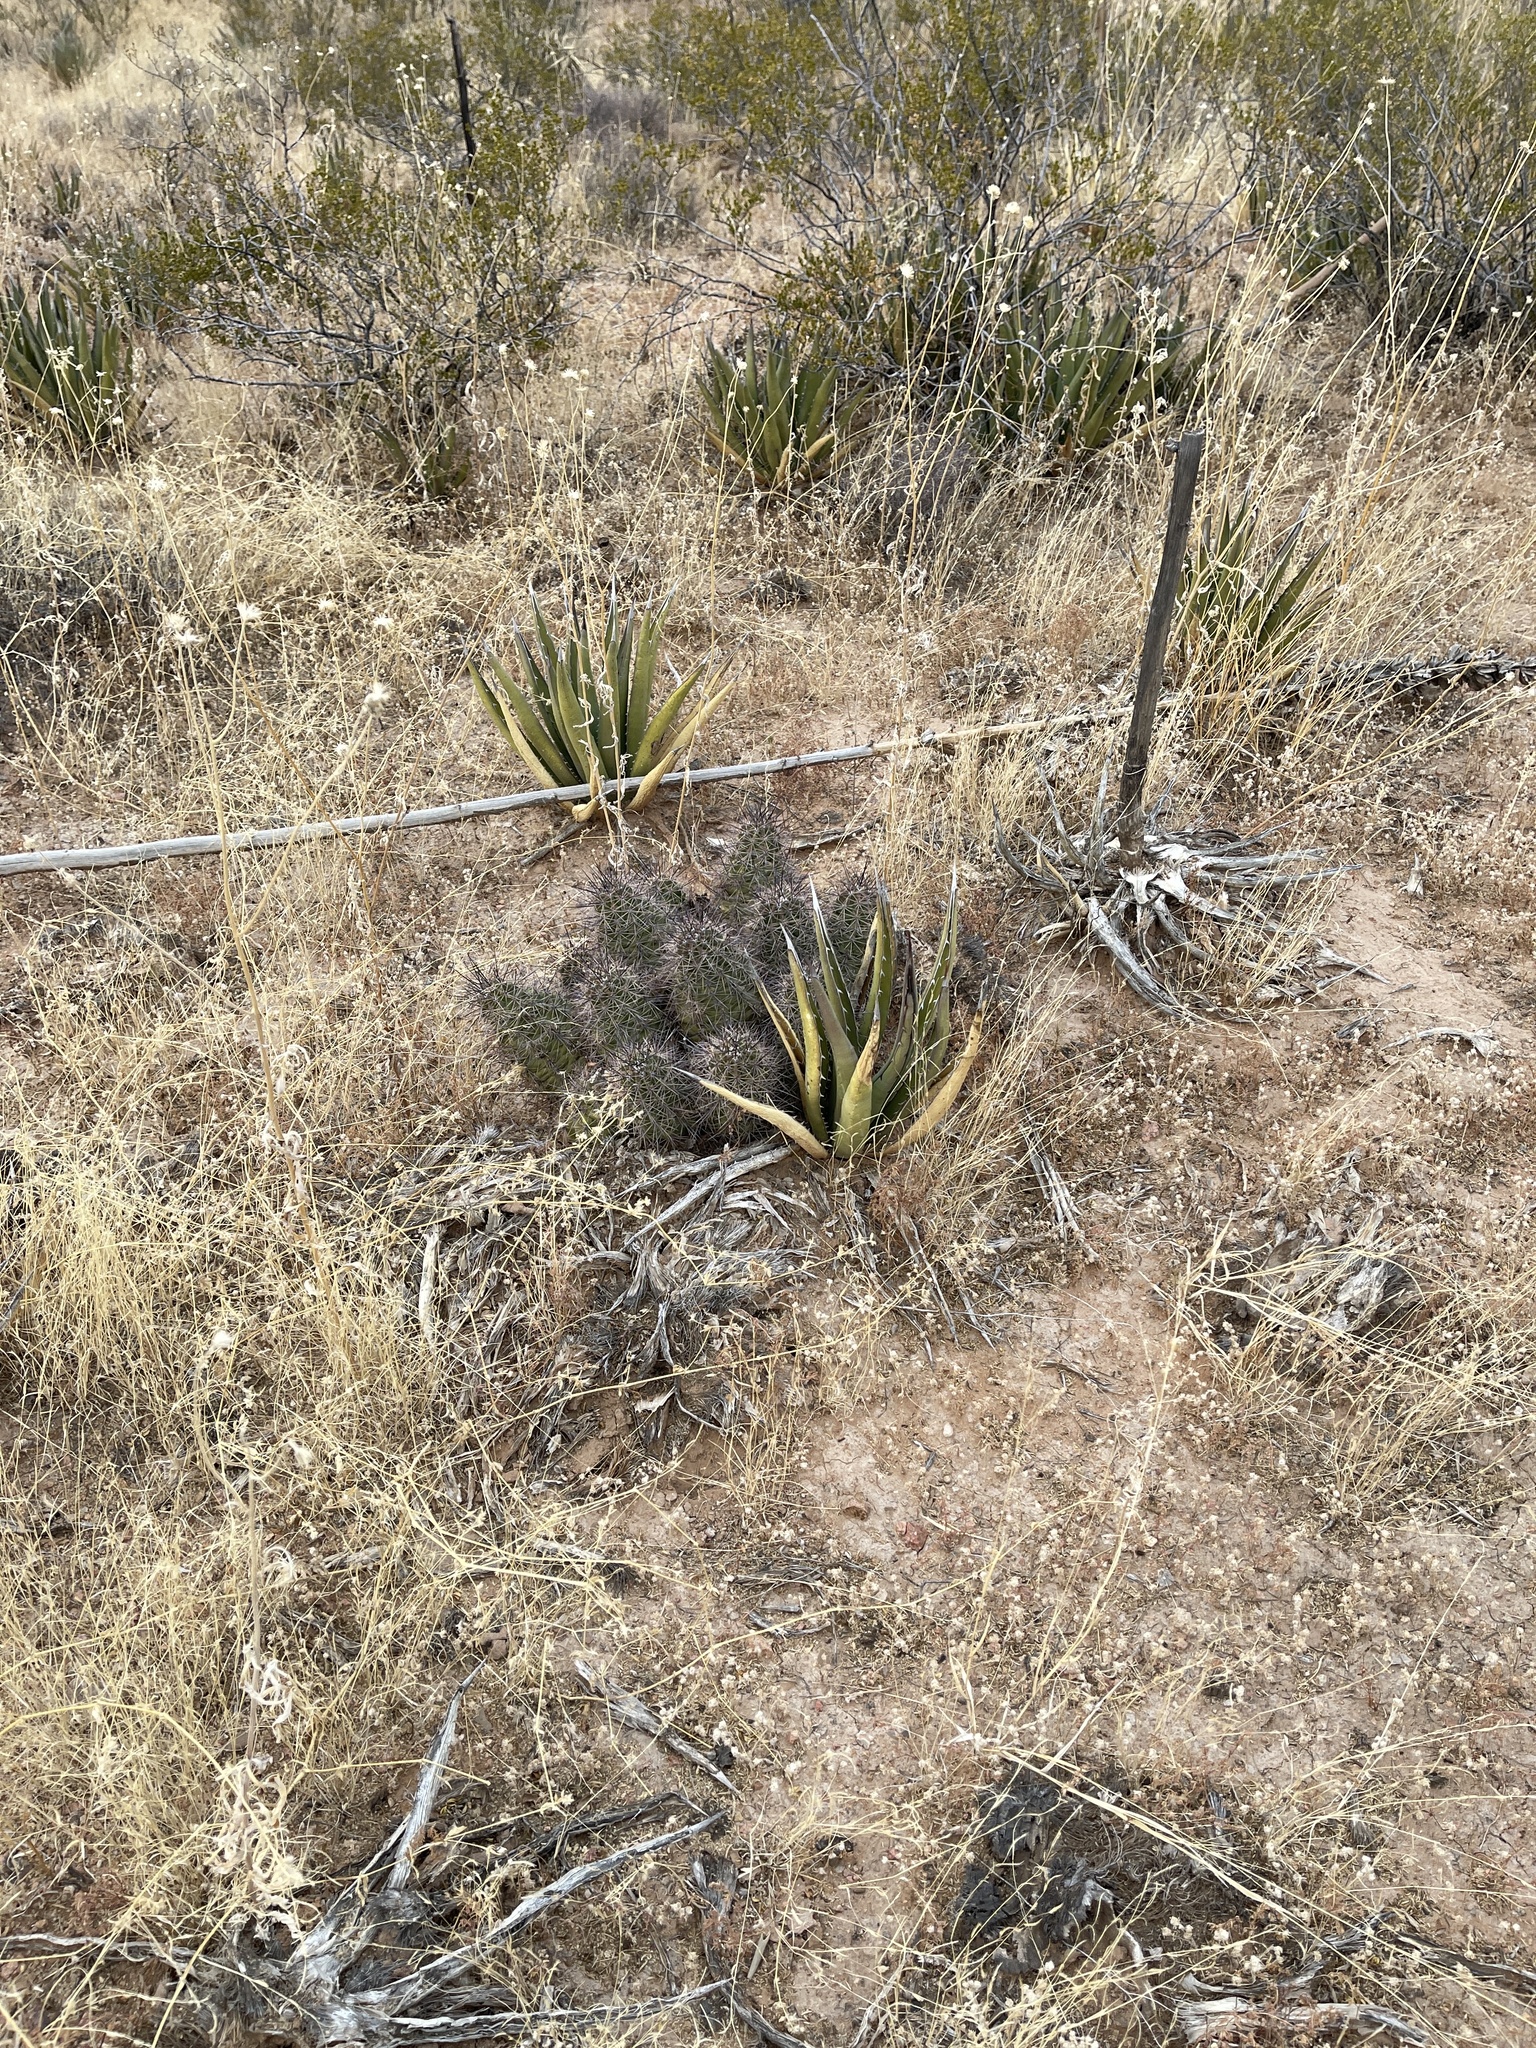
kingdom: Plantae
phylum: Tracheophyta
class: Magnoliopsida
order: Caryophyllales
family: Cactaceae
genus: Echinocereus
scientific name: Echinocereus coccineus
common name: Scarlet hedgehog cactus
